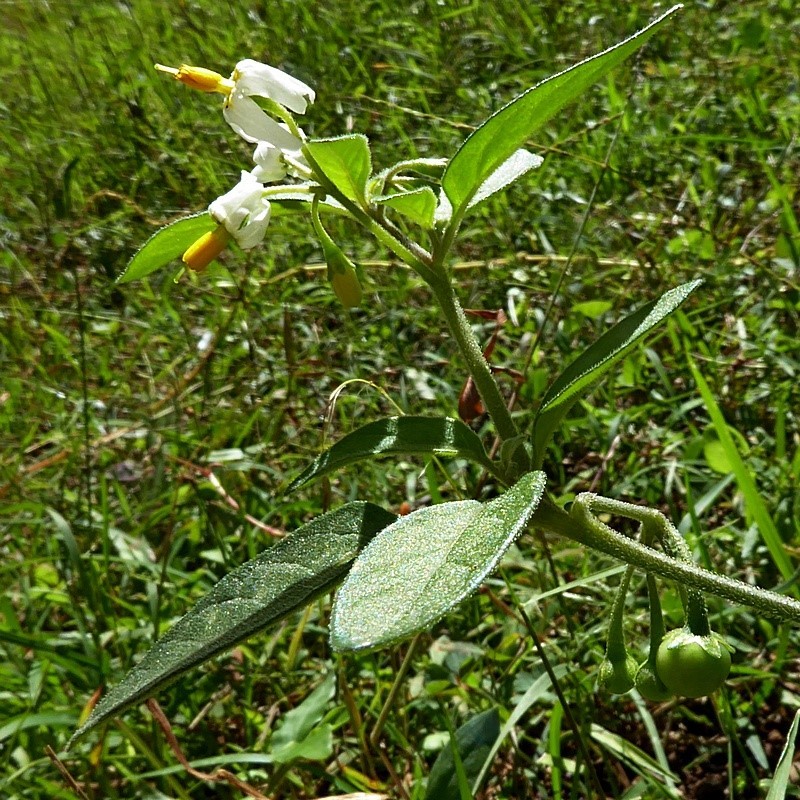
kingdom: Plantae
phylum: Tracheophyta
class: Magnoliopsida
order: Solanales
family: Solanaceae
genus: Solanum
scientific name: Solanum chenopodioides
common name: Tall nightshade
